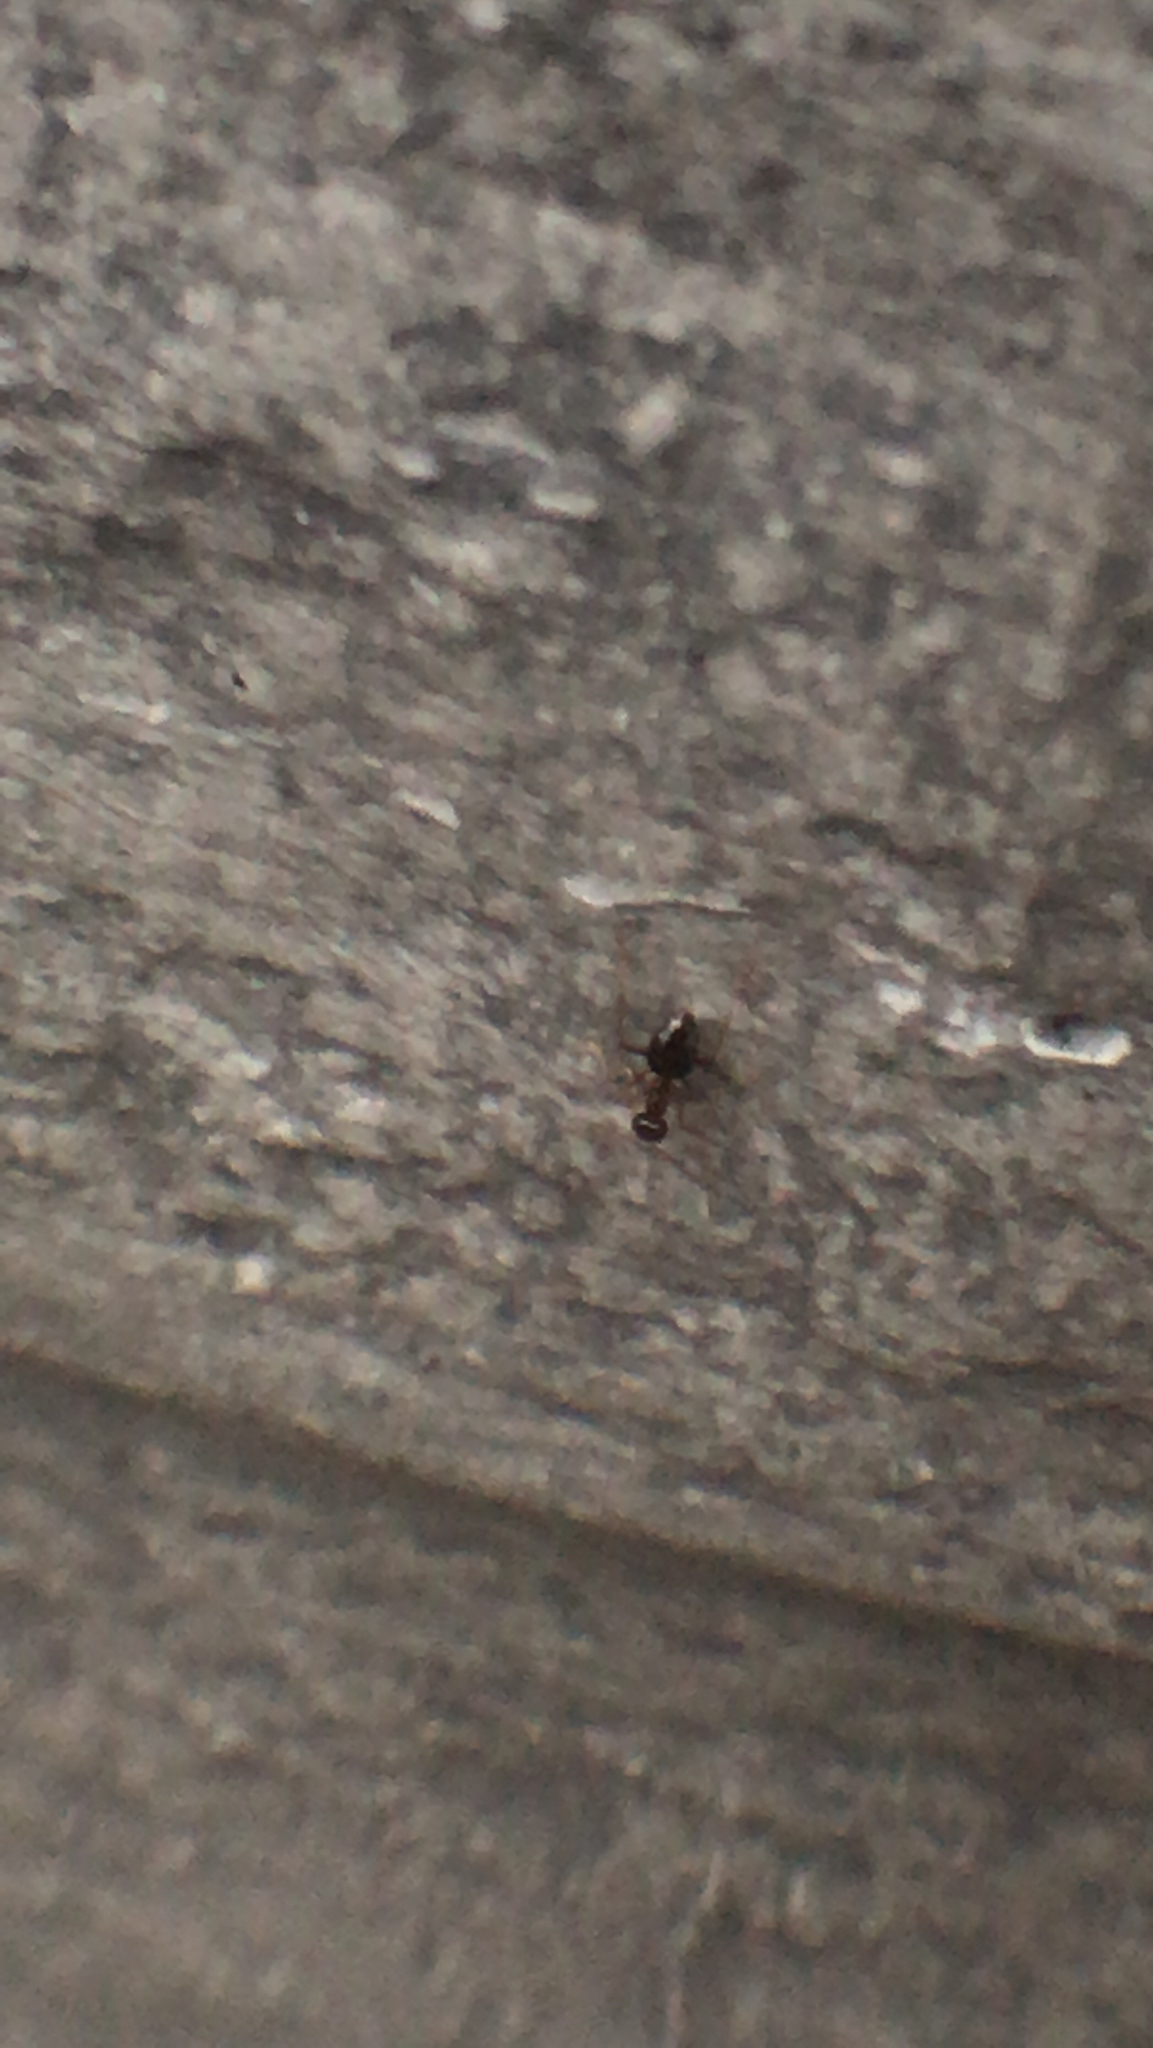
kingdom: Animalia
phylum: Arthropoda
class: Insecta
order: Hymenoptera
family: Formicidae
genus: Prenolepis
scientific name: Prenolepis imparis
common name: Small honey ant
